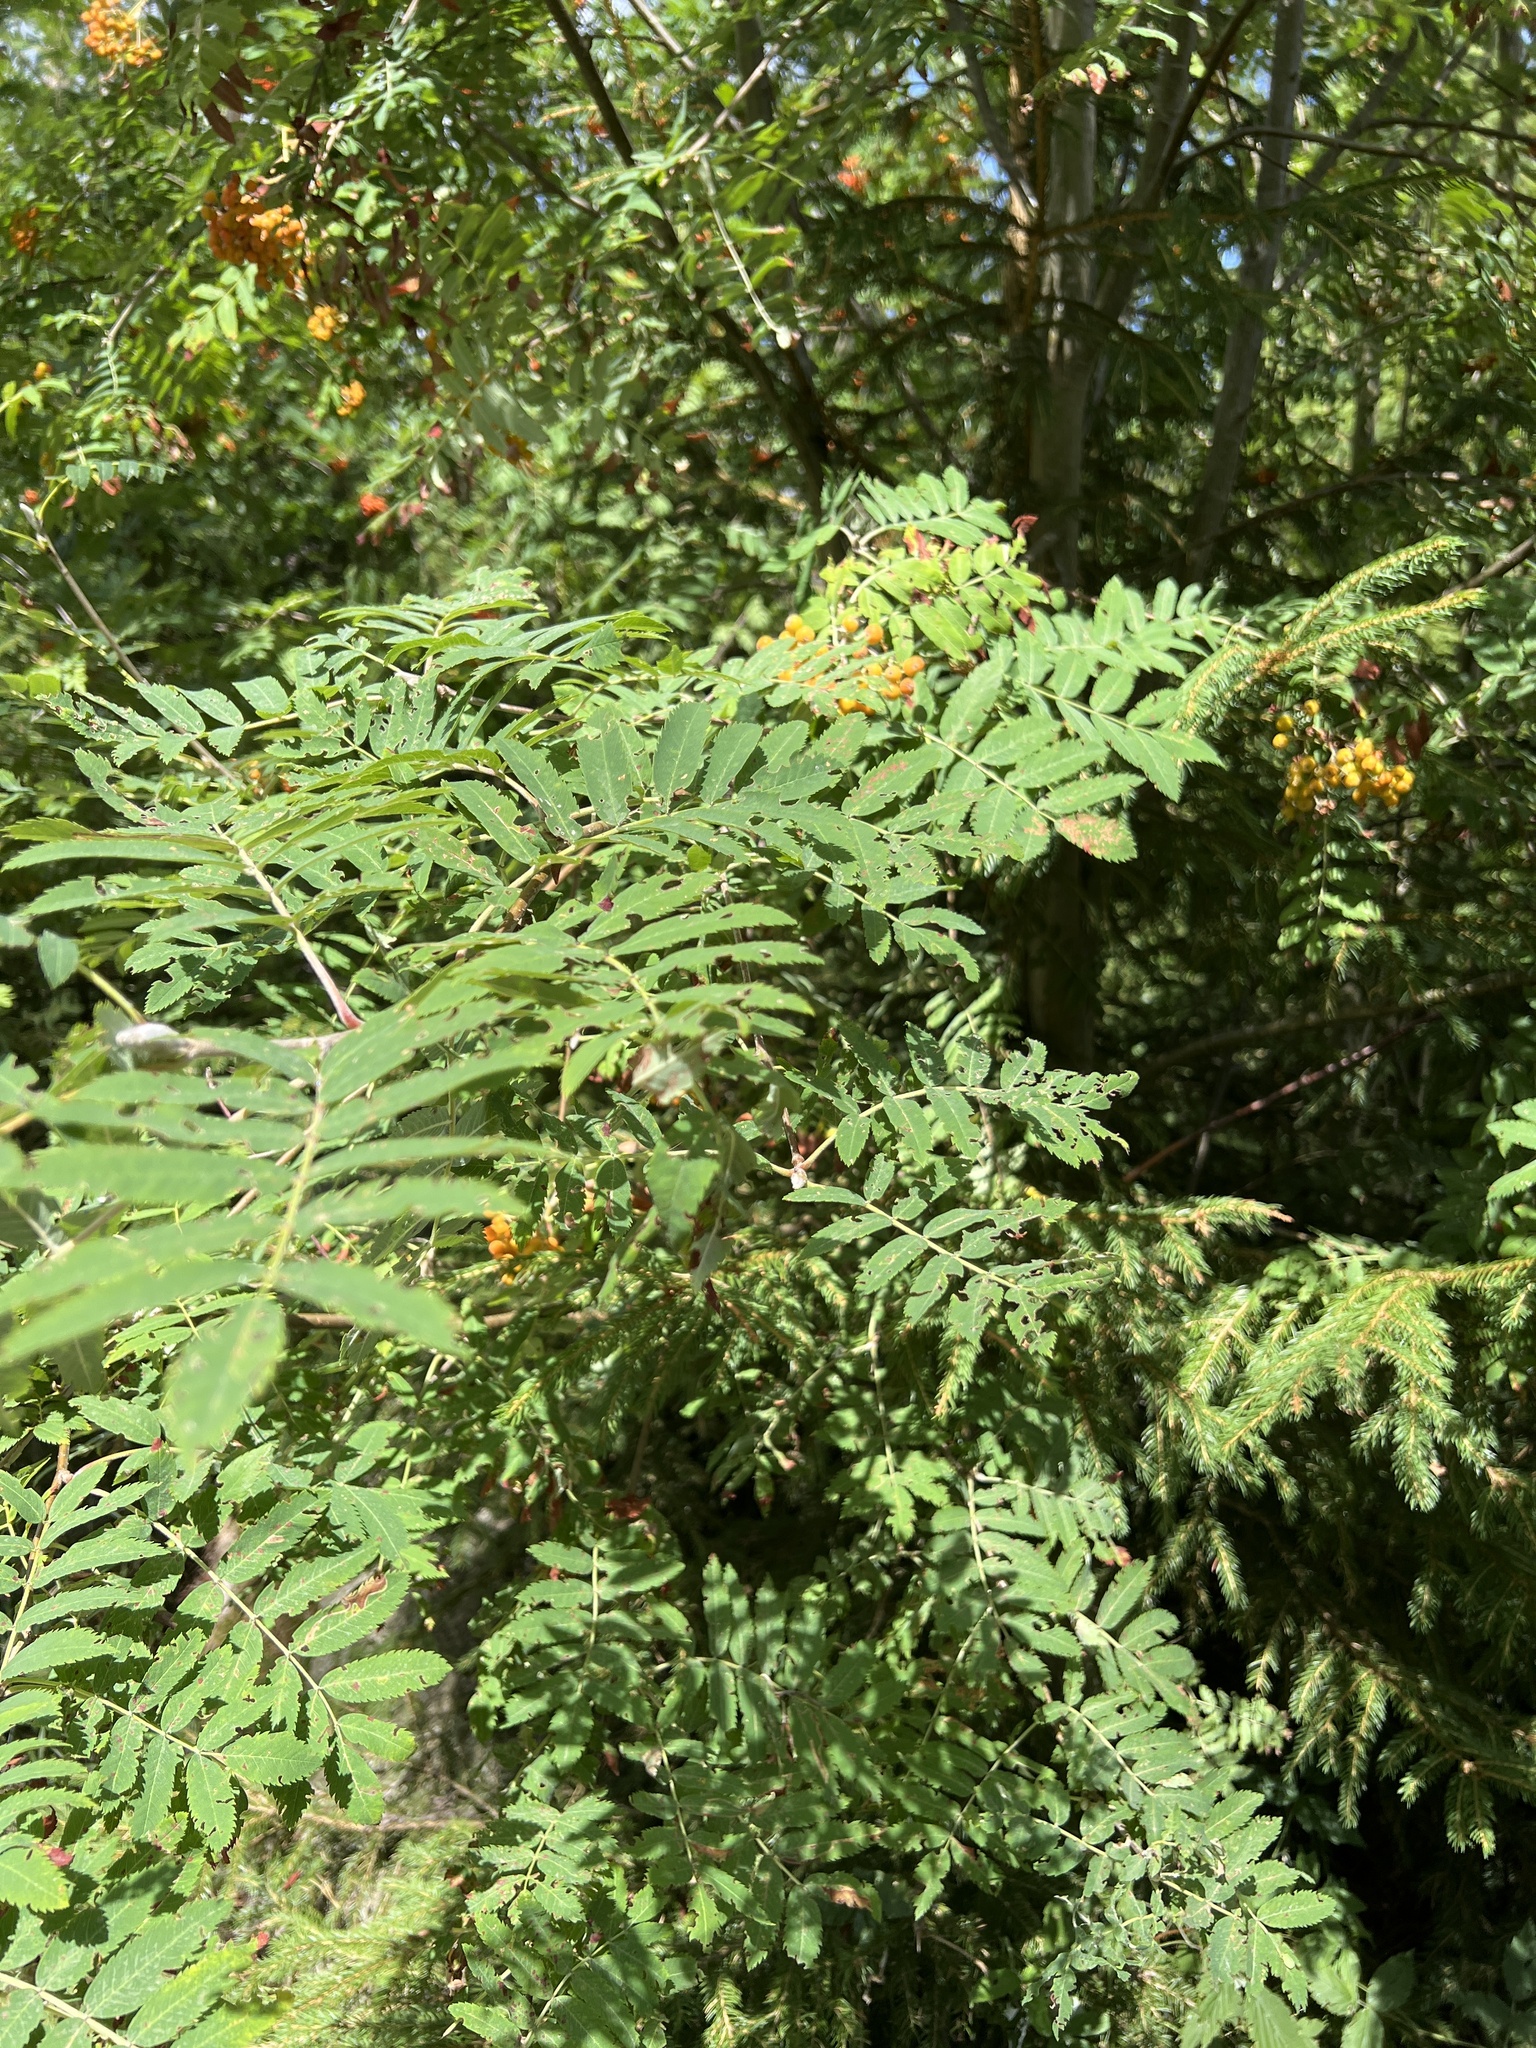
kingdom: Plantae
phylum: Tracheophyta
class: Magnoliopsida
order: Rosales
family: Rosaceae
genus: Sorbus
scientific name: Sorbus aucuparia
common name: Rowan
